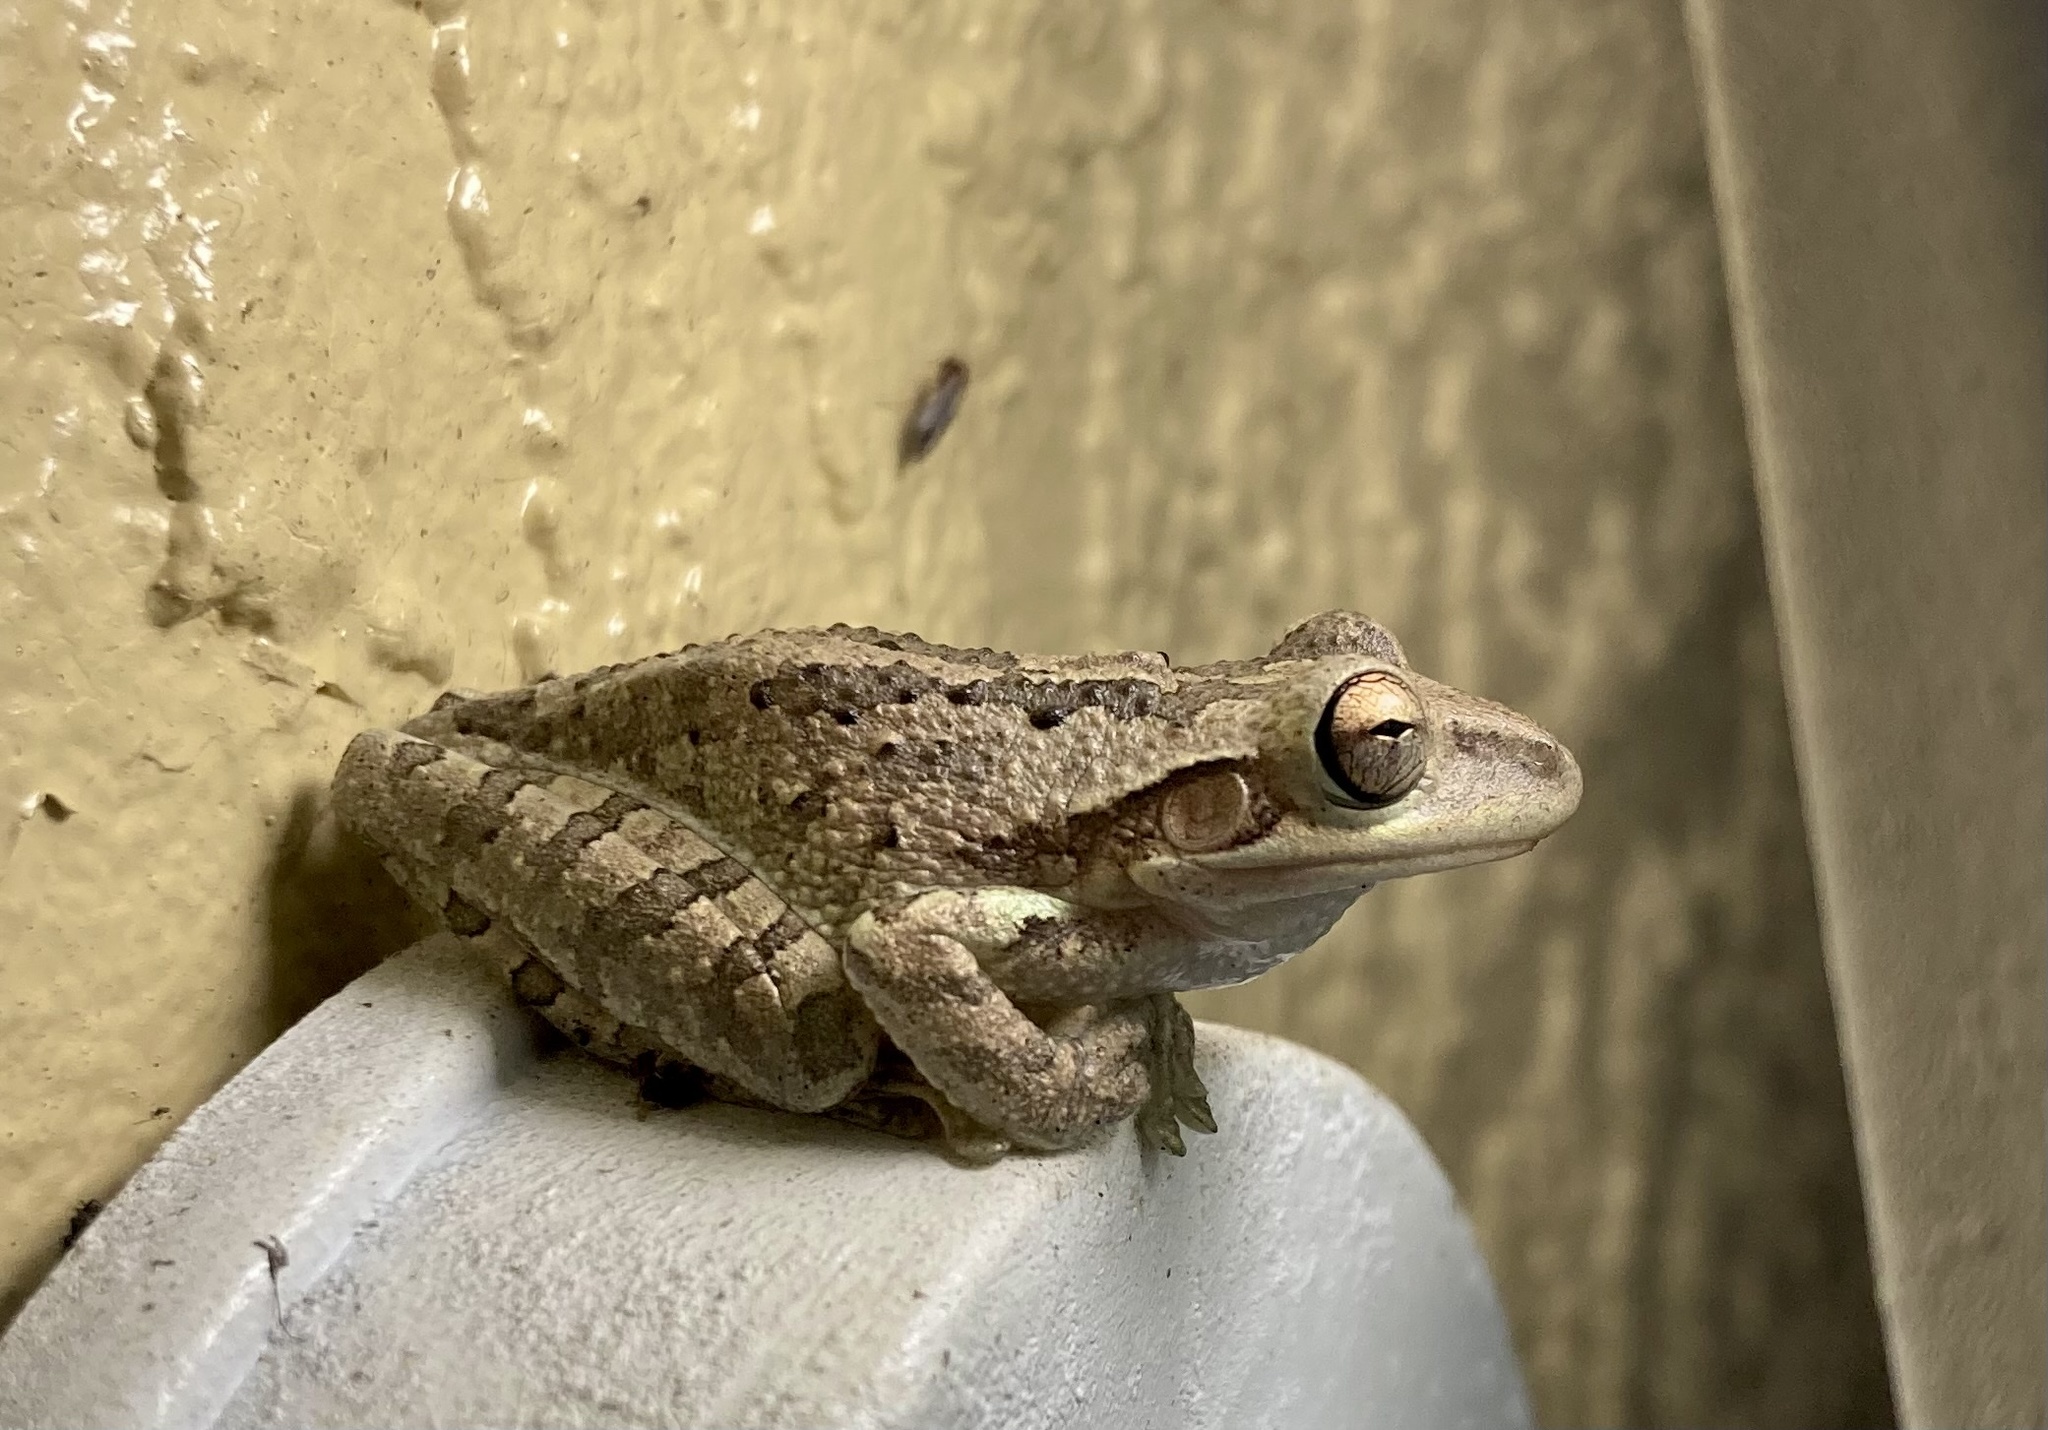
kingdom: Animalia
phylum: Chordata
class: Amphibia
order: Anura
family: Hylidae
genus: Osteopilus
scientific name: Osteopilus septentrionalis
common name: Cuban treefrog
